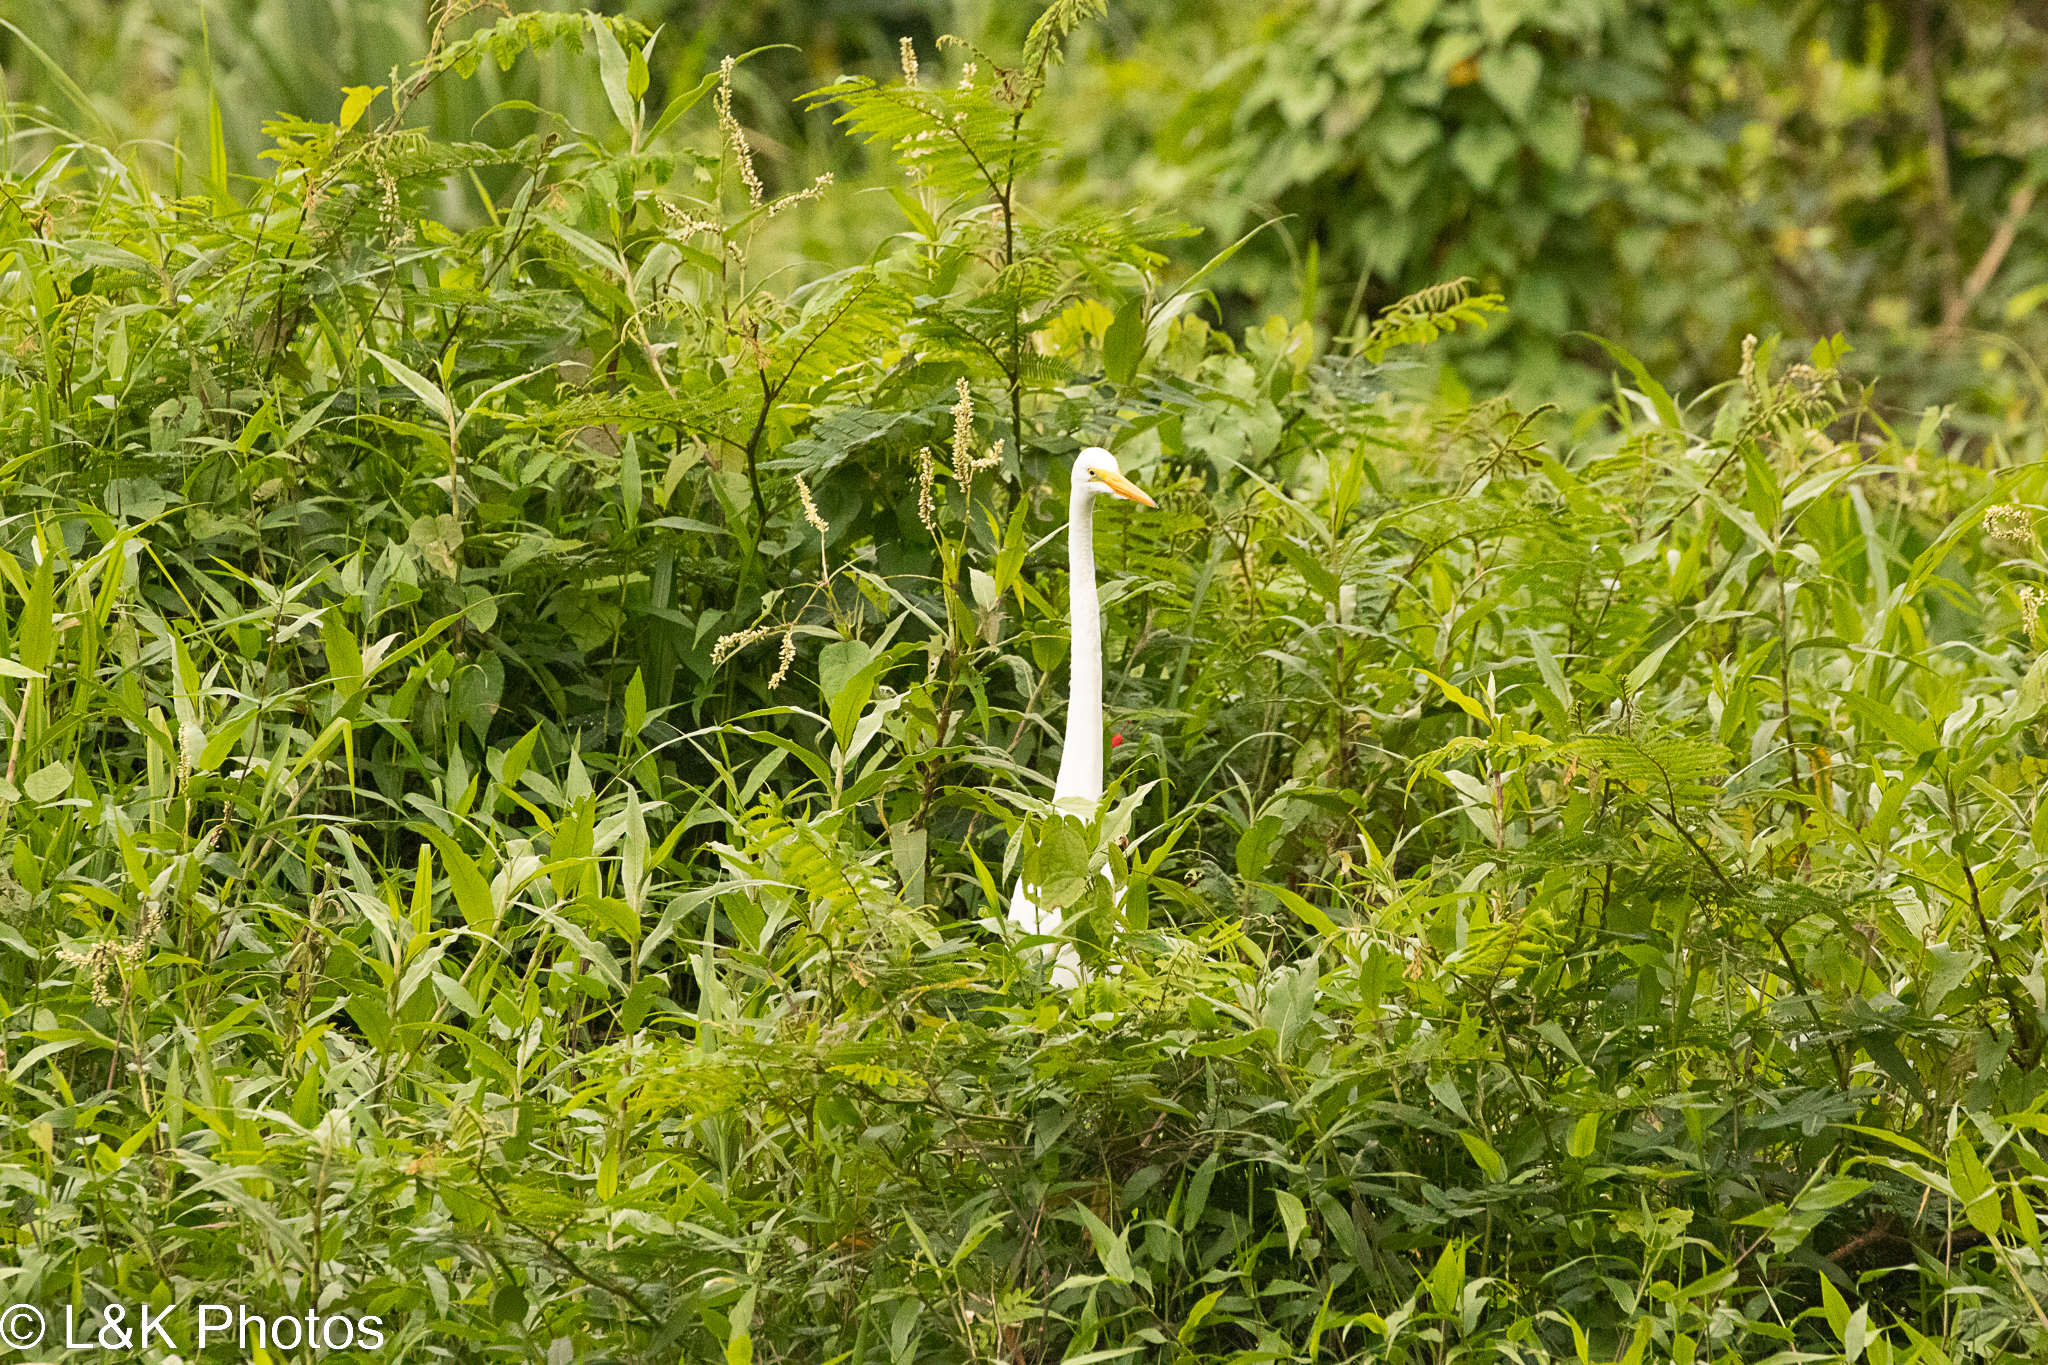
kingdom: Animalia
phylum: Chordata
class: Aves
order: Pelecaniformes
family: Ardeidae
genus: Ardea
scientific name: Ardea alba
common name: Great egret
